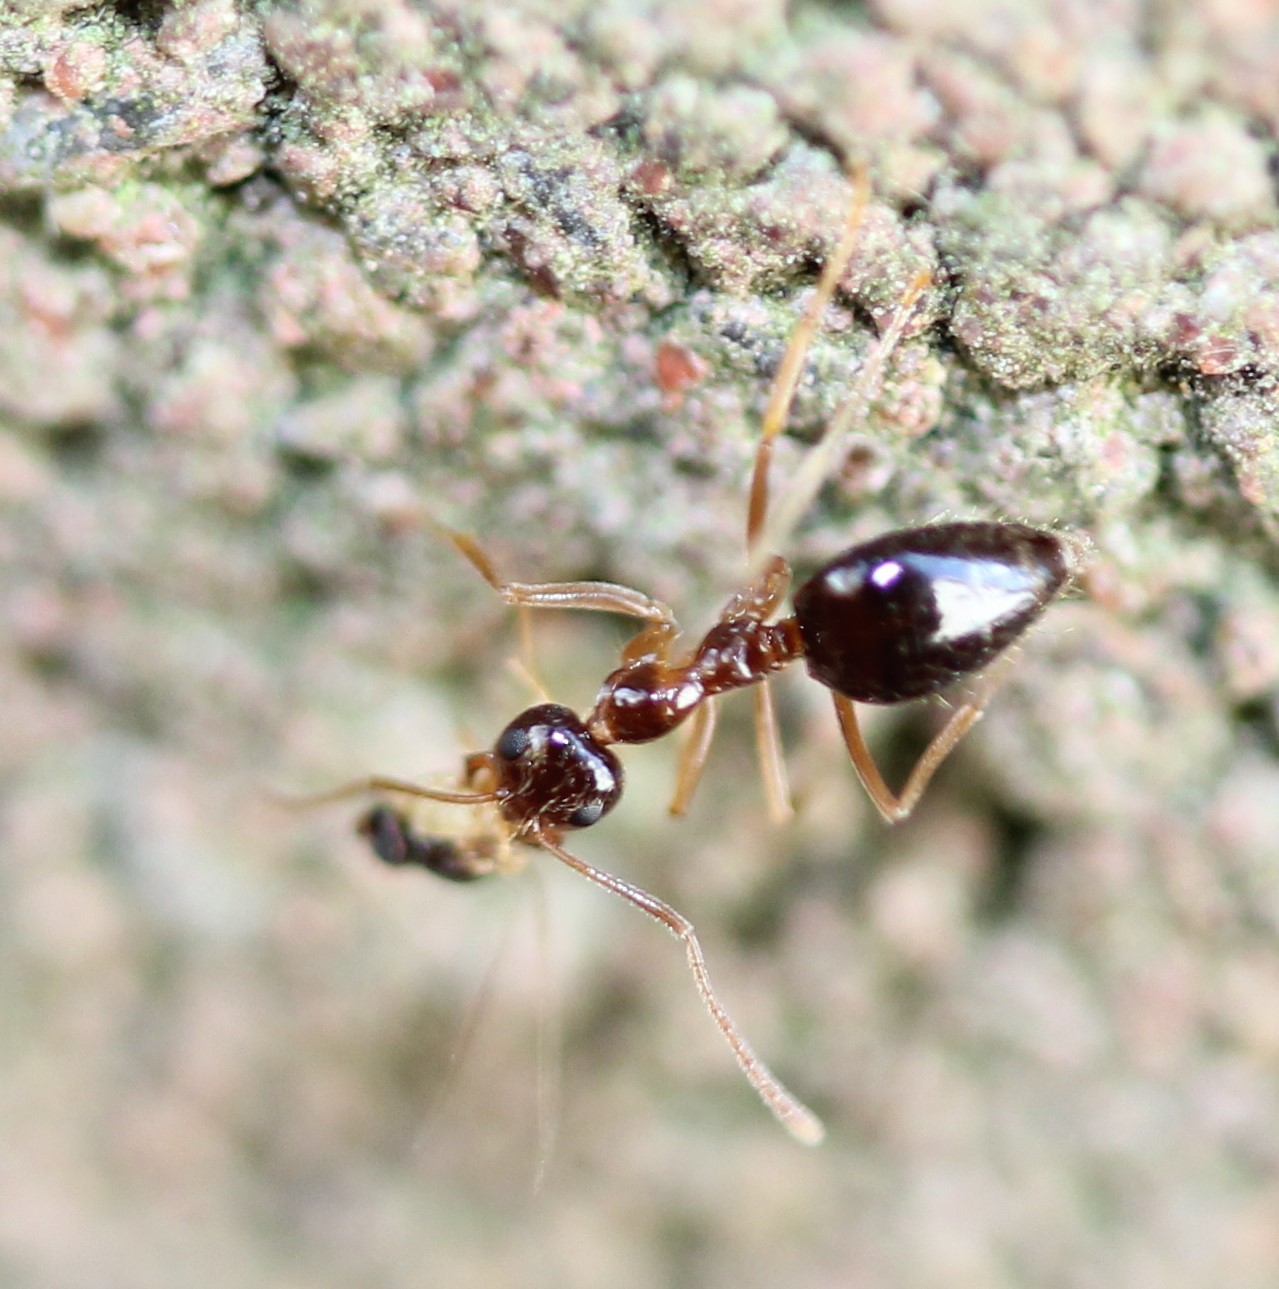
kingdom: Animalia
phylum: Arthropoda
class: Insecta
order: Hymenoptera
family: Formicidae
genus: Prenolepis
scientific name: Prenolepis imparis
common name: Small honey ant
